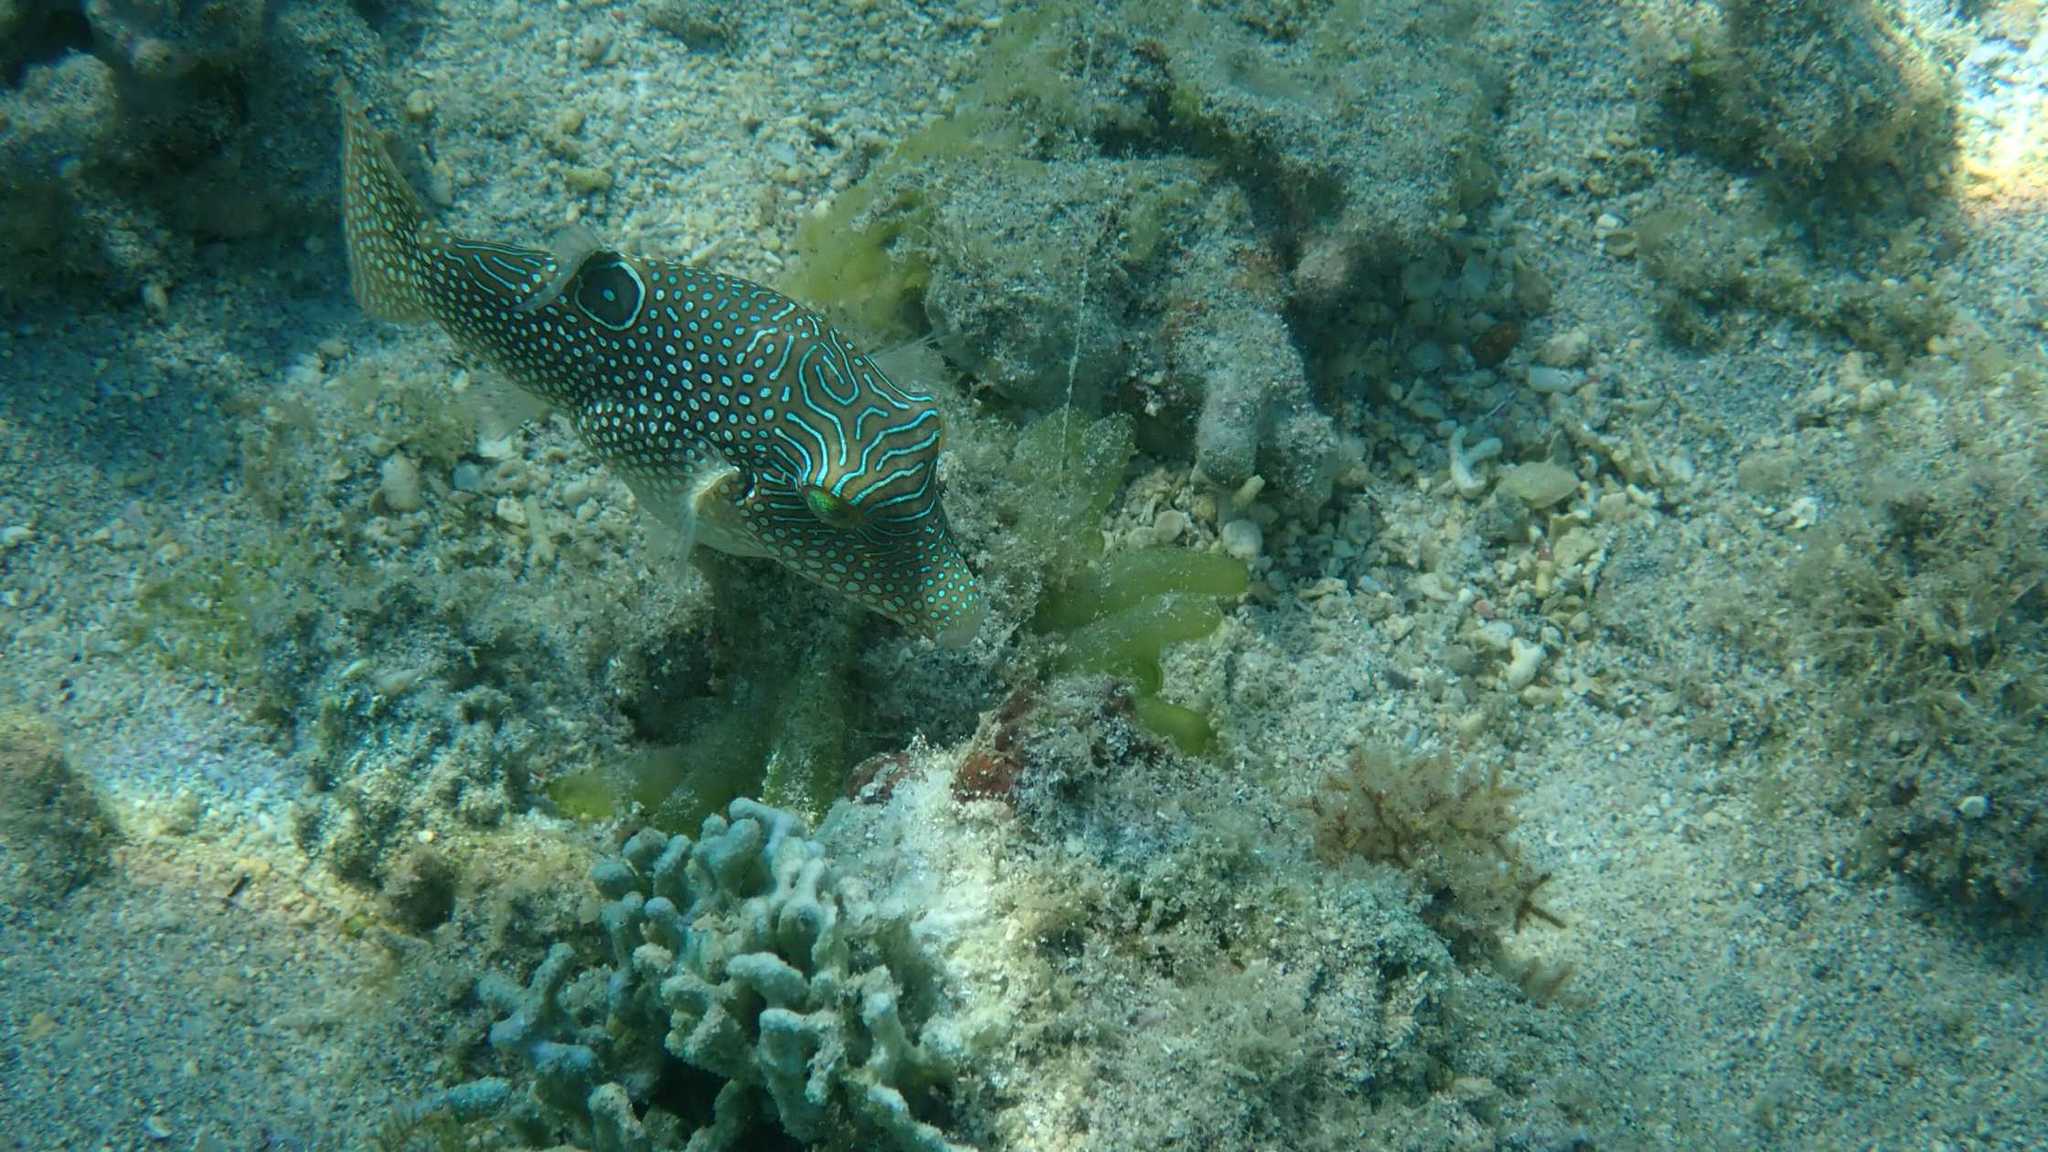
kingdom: Animalia
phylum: Chordata
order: Tetraodontiformes
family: Tetraodontidae
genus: Canthigaster
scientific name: Canthigaster petersii
